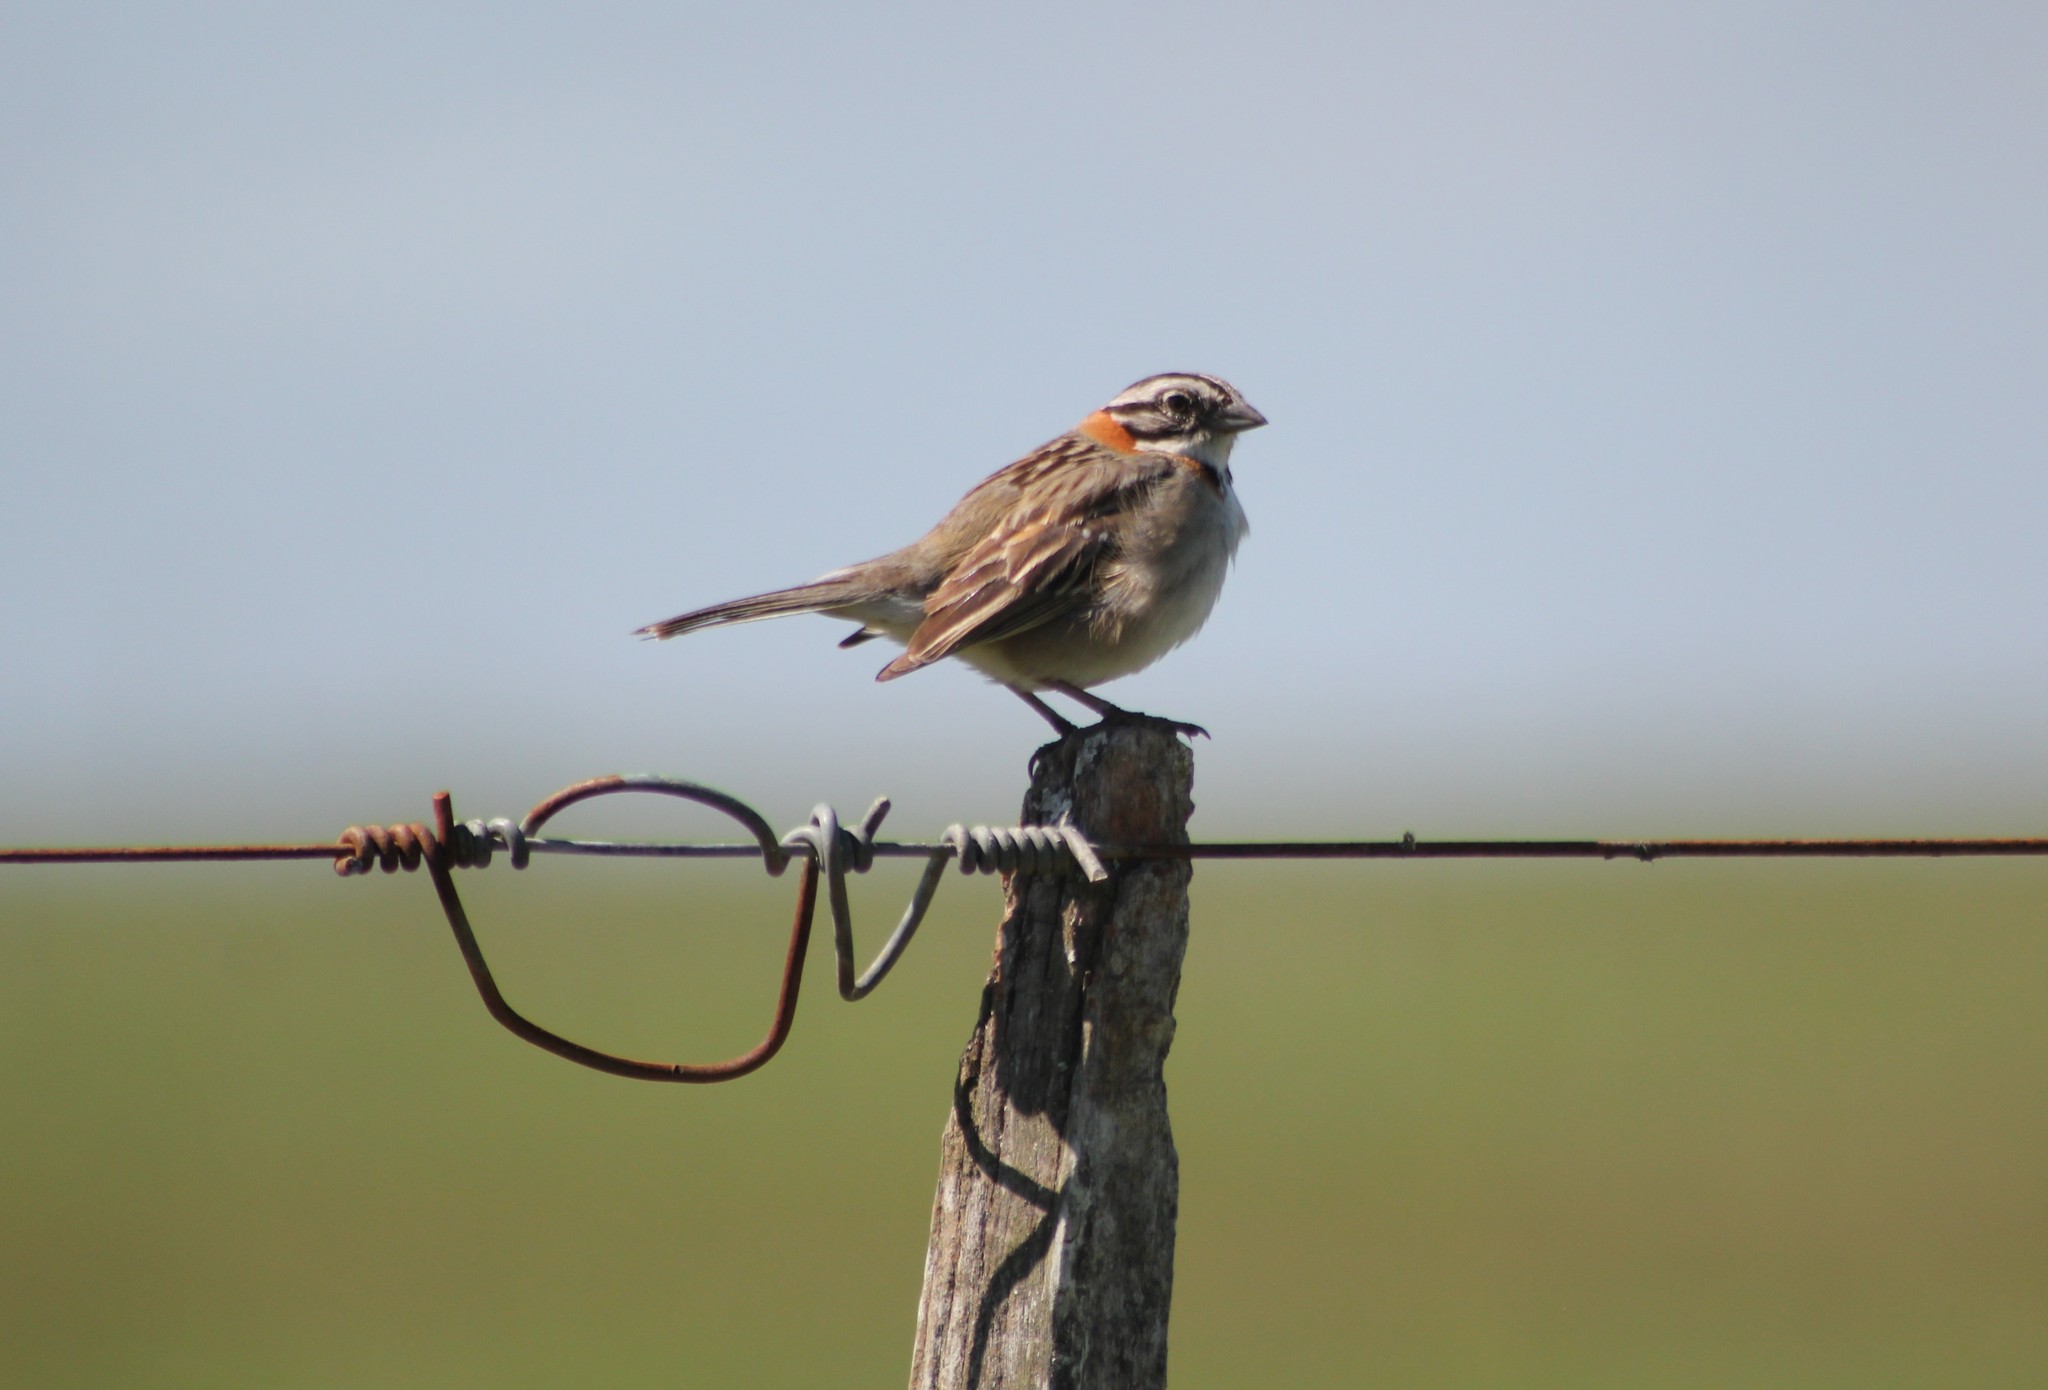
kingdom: Animalia
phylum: Chordata
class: Aves
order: Passeriformes
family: Passerellidae
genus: Zonotrichia
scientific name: Zonotrichia capensis
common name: Rufous-collared sparrow
